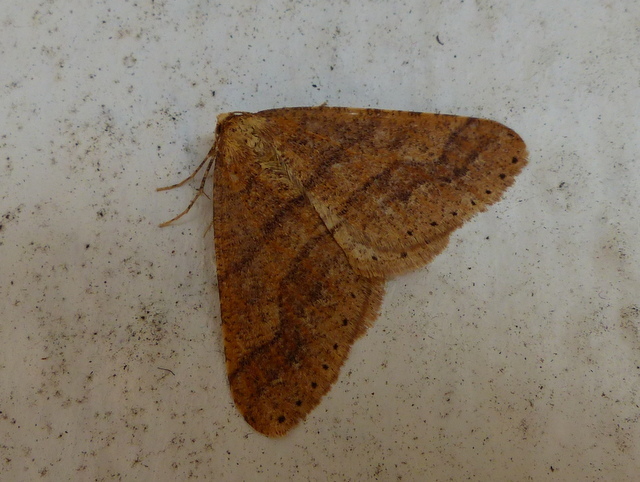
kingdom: Animalia
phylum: Arthropoda
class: Insecta
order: Lepidoptera
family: Geometridae
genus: Agriopis
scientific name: Agriopis marginaria
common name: Dotted border
